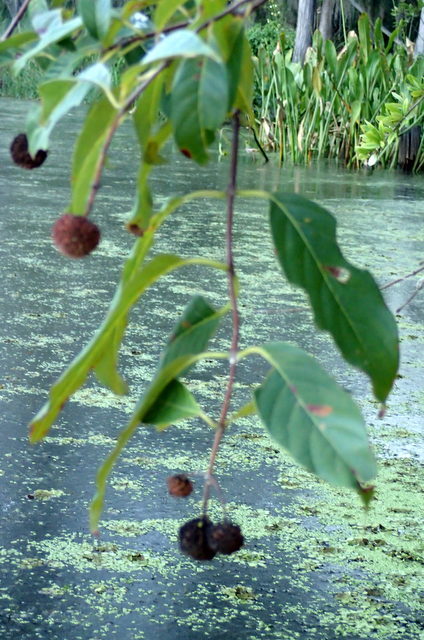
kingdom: Plantae
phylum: Tracheophyta
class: Magnoliopsida
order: Gentianales
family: Rubiaceae
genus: Cephalanthus
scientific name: Cephalanthus occidentalis
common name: Button-willow
